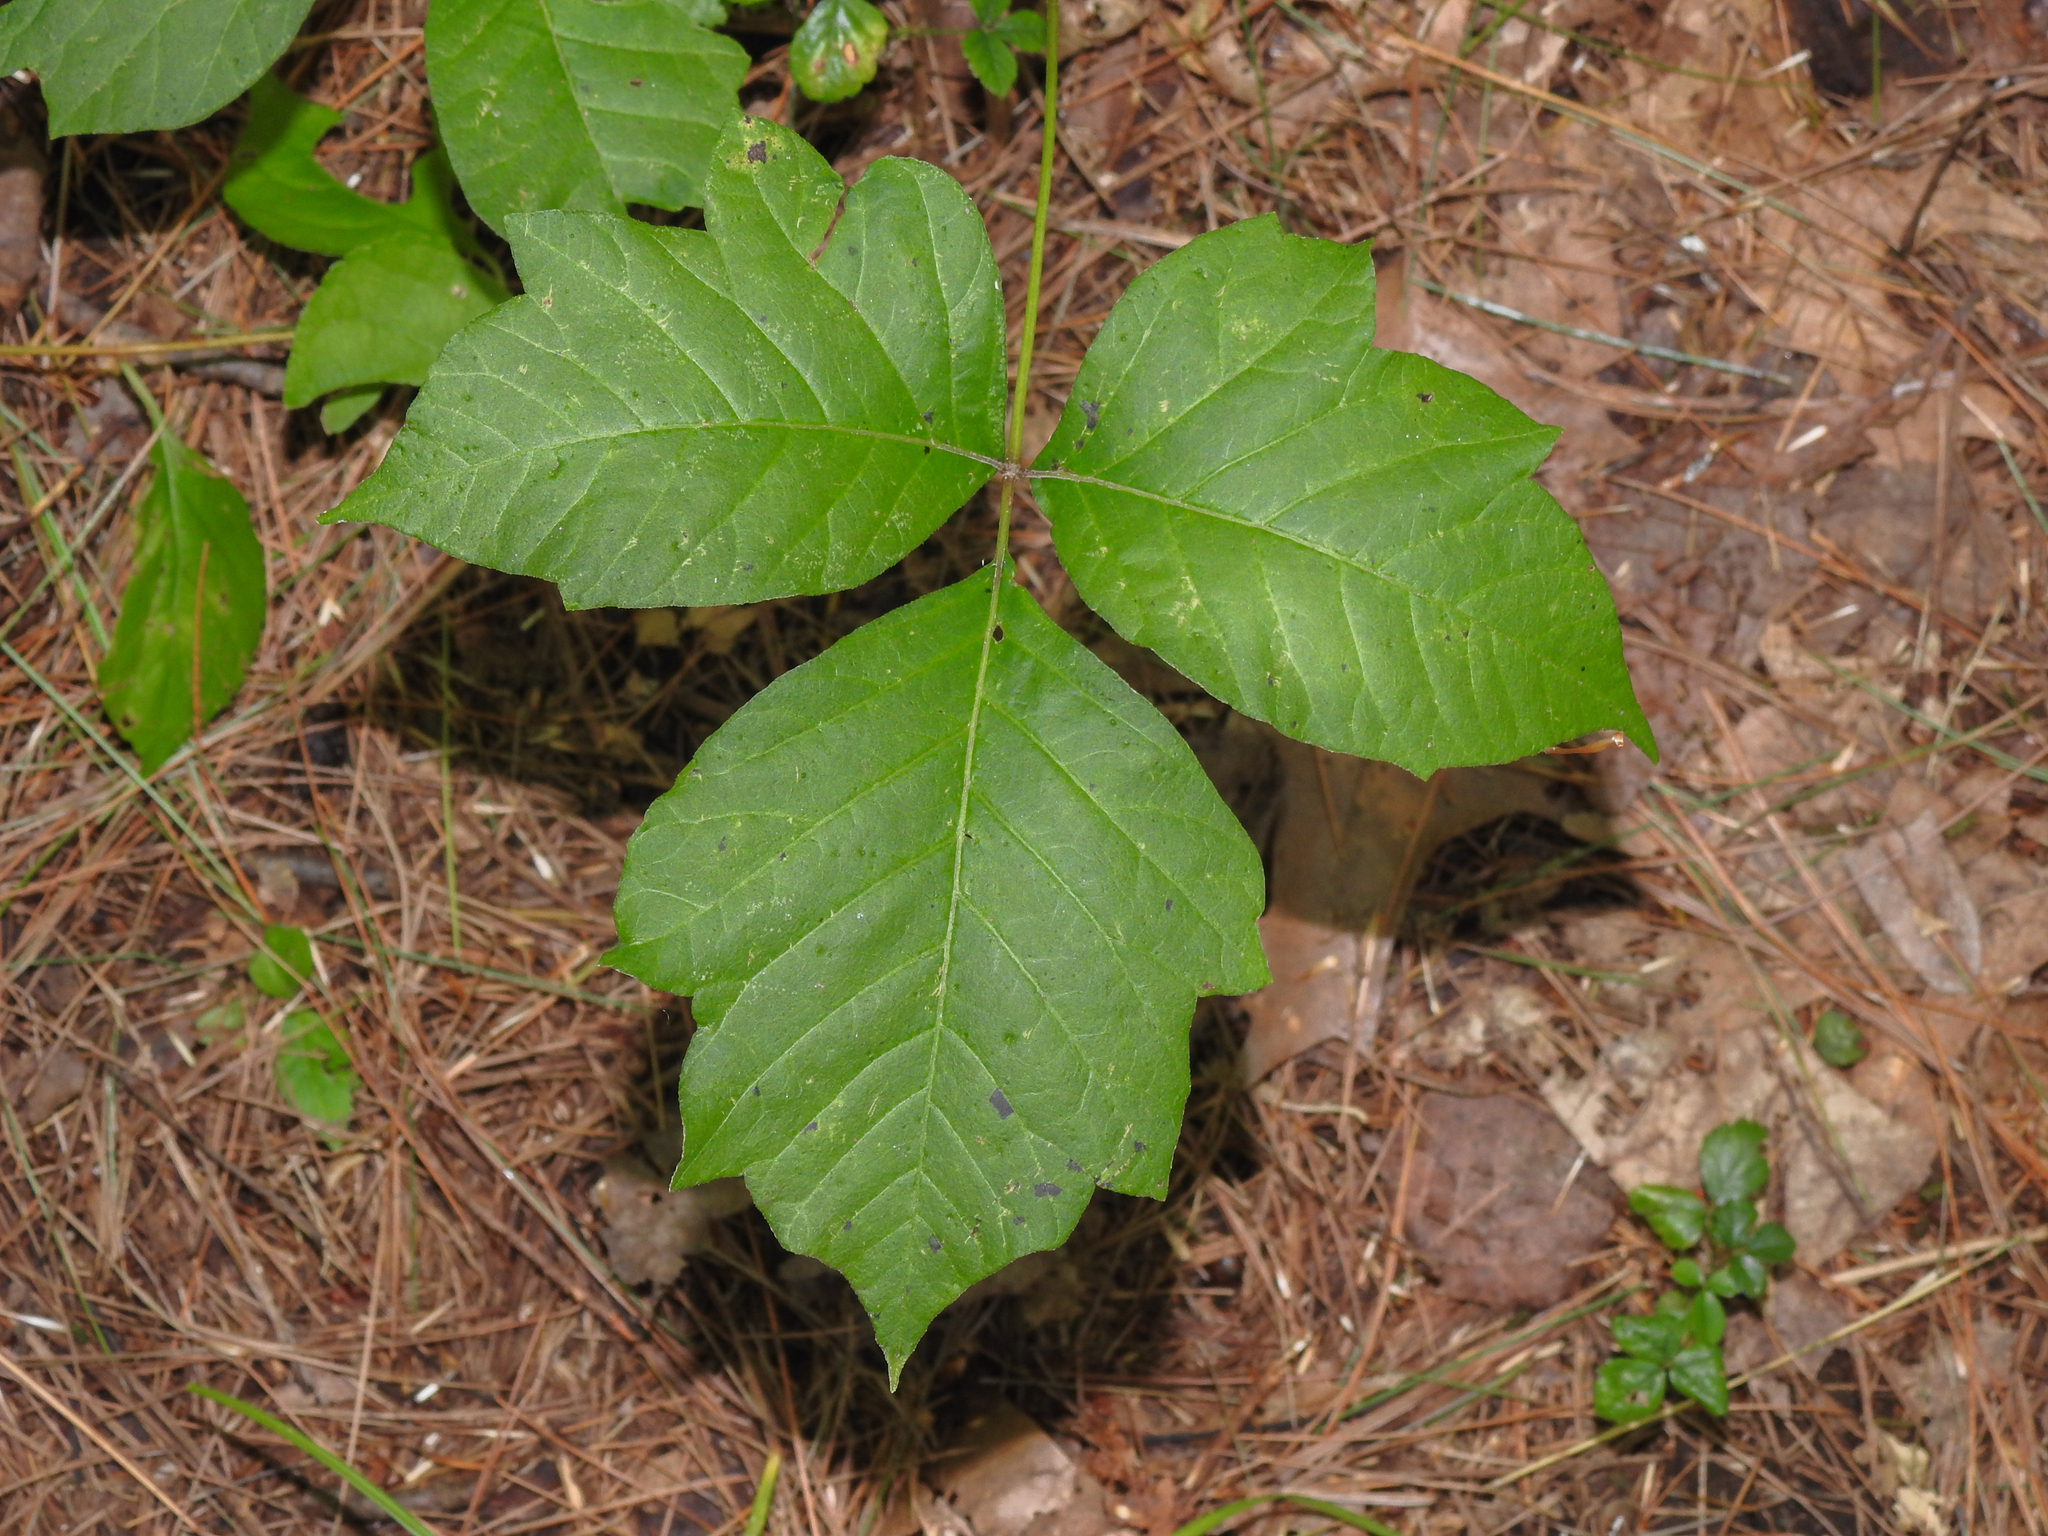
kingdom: Plantae
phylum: Tracheophyta
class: Magnoliopsida
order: Sapindales
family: Anacardiaceae
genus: Toxicodendron
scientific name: Toxicodendron radicans
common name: Poison ivy
